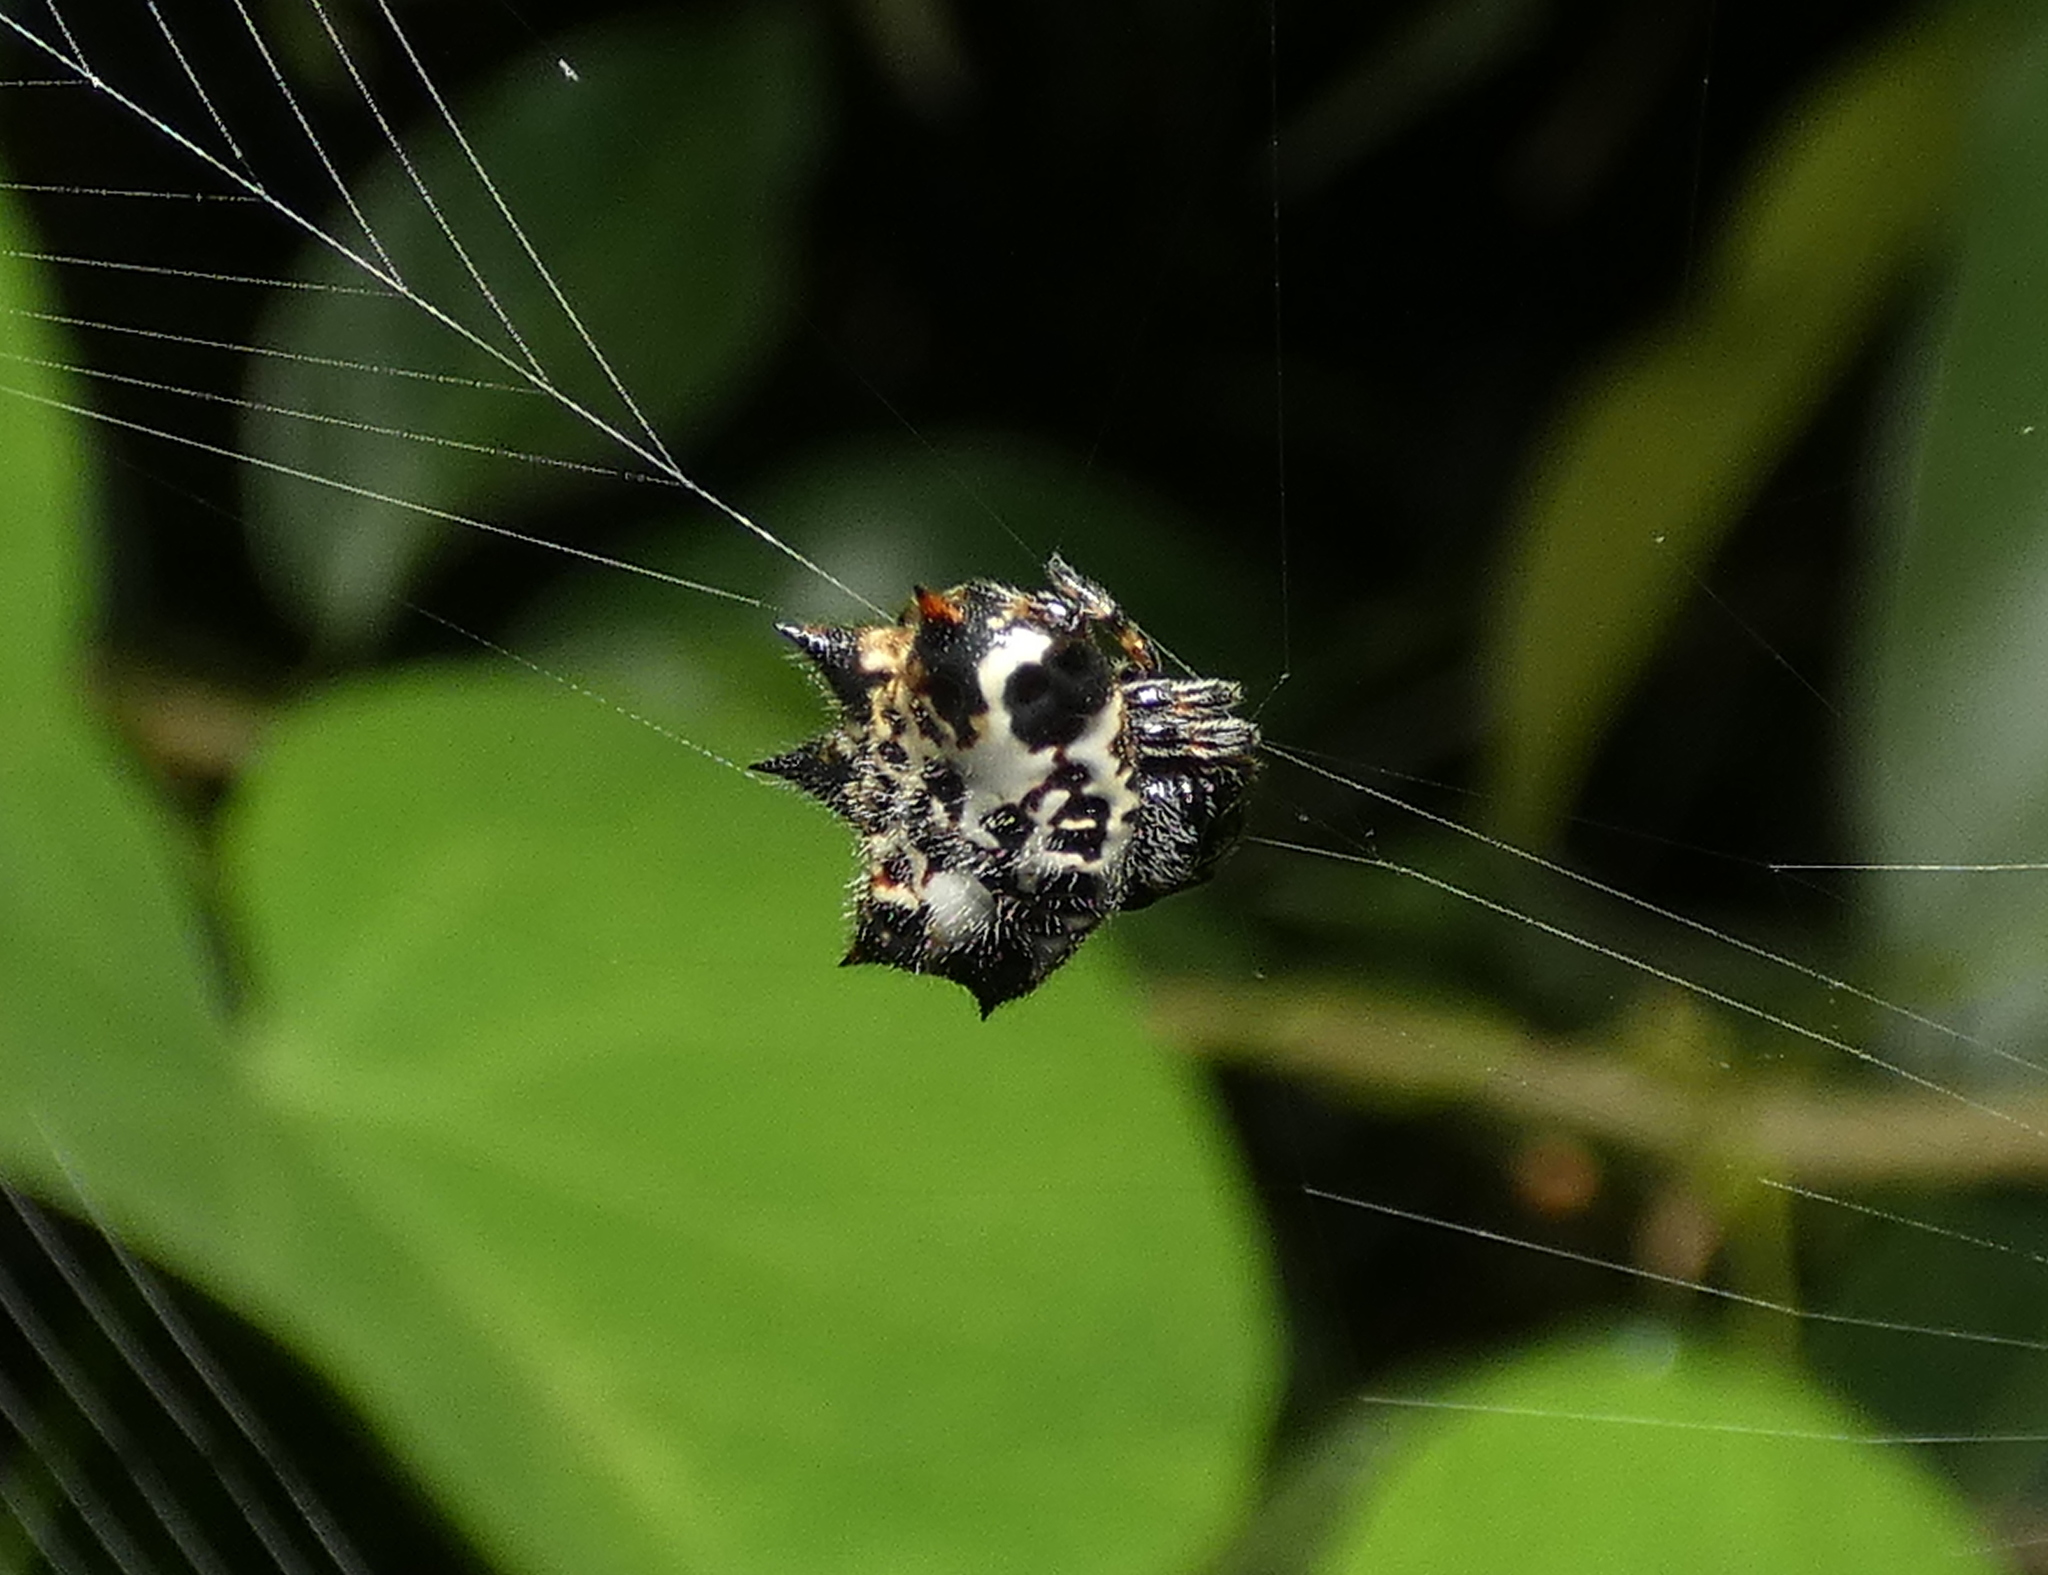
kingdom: Animalia
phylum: Arthropoda
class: Arachnida
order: Araneae
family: Araneidae
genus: Gasteracantha
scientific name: Gasteracantha cancriformis
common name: Orb weavers
